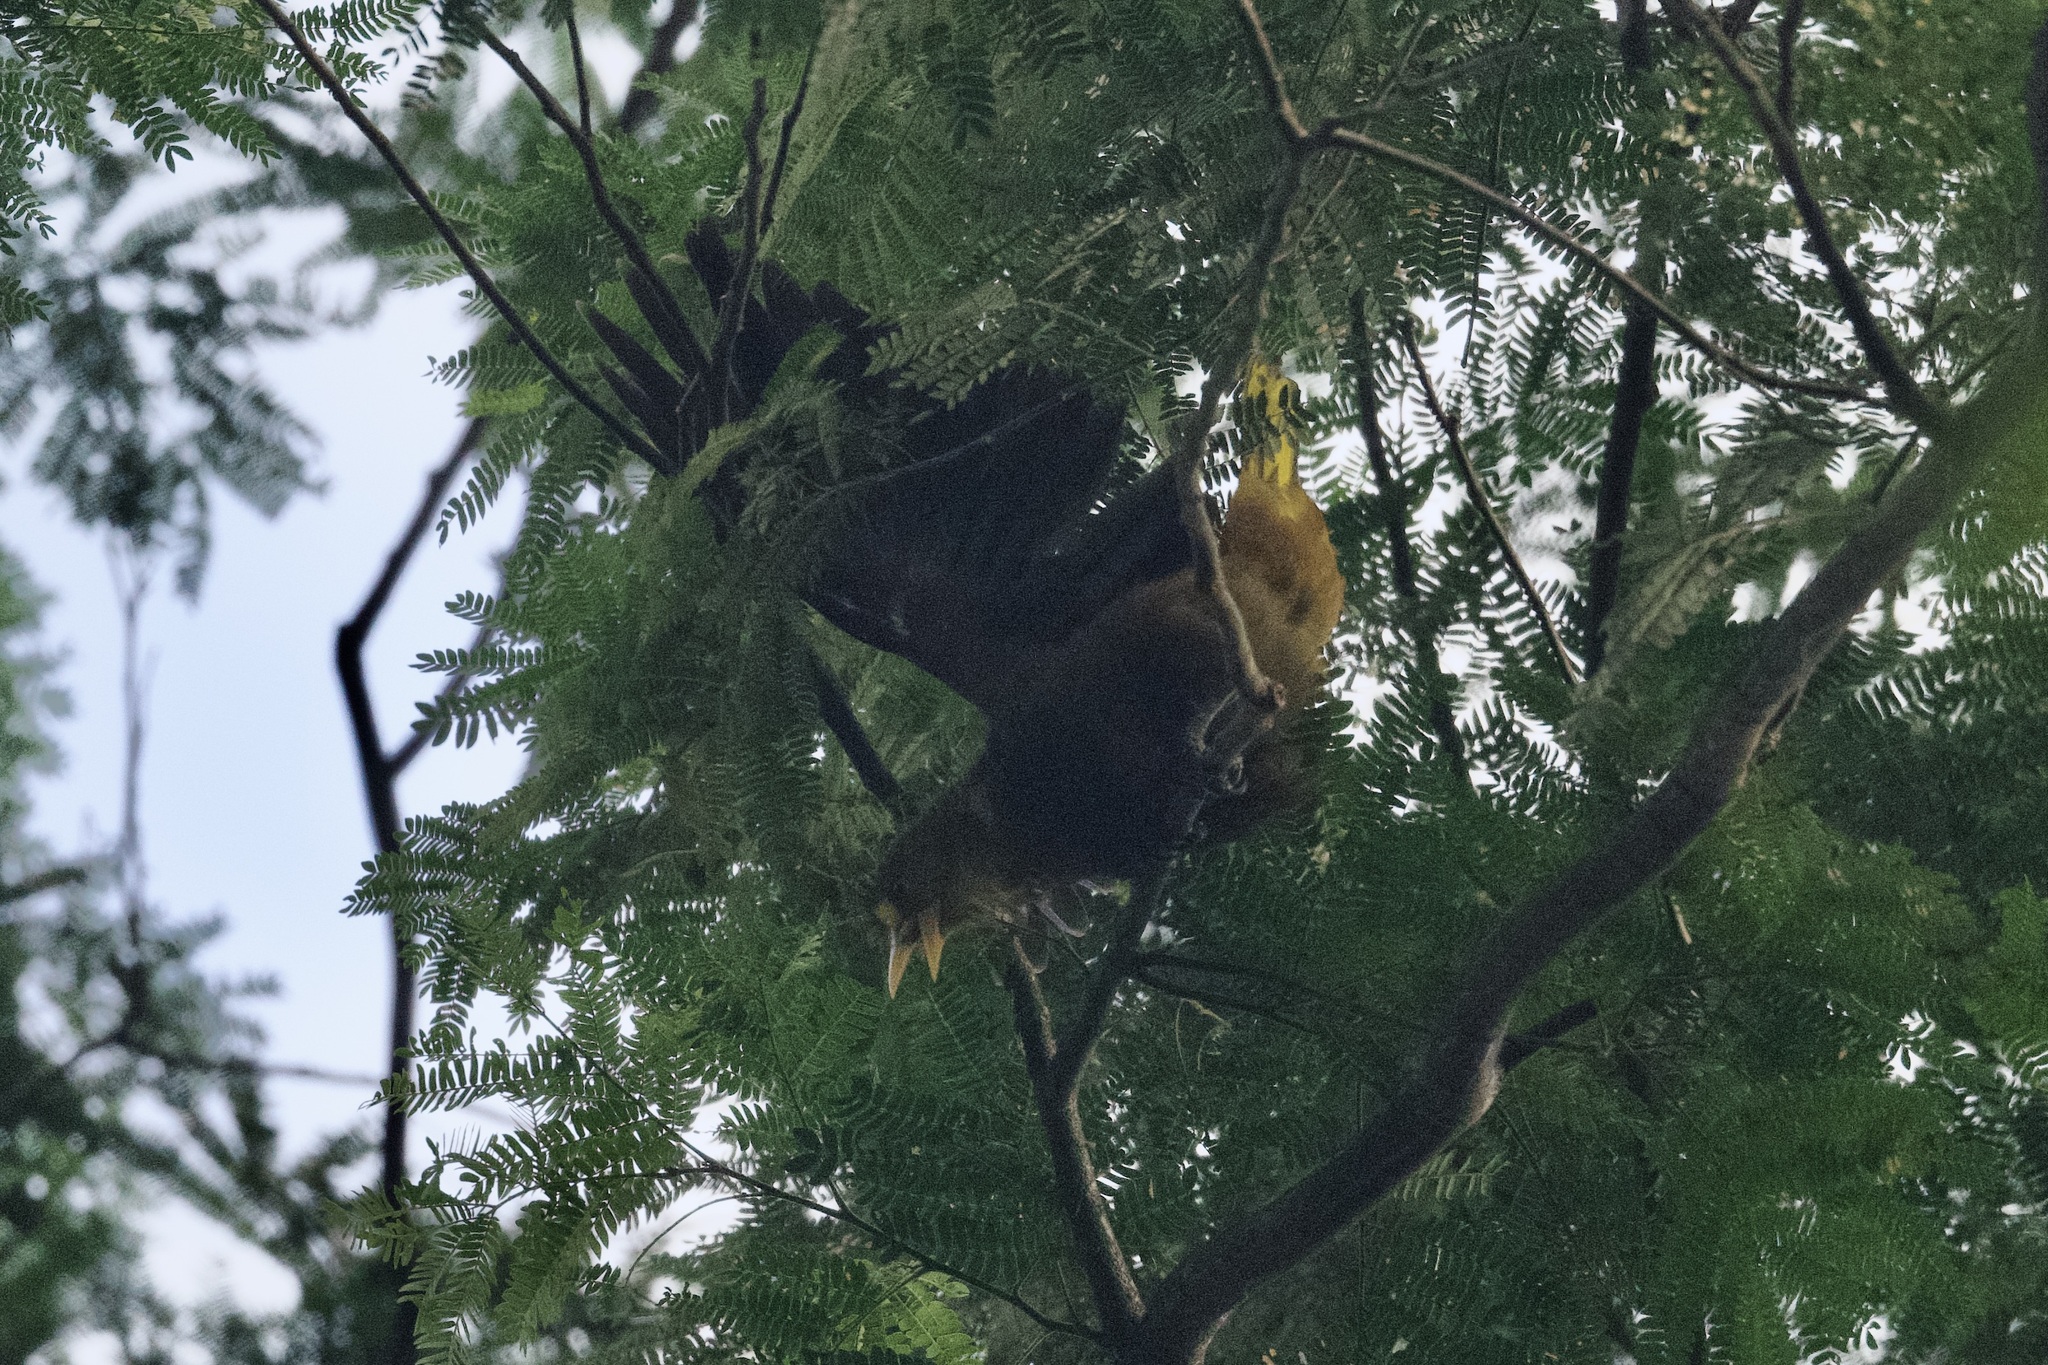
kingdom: Animalia
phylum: Chordata
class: Aves
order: Passeriformes
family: Icteridae
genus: Psarocolius
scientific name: Psarocolius angustifrons
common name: Russet-backed oropendola
